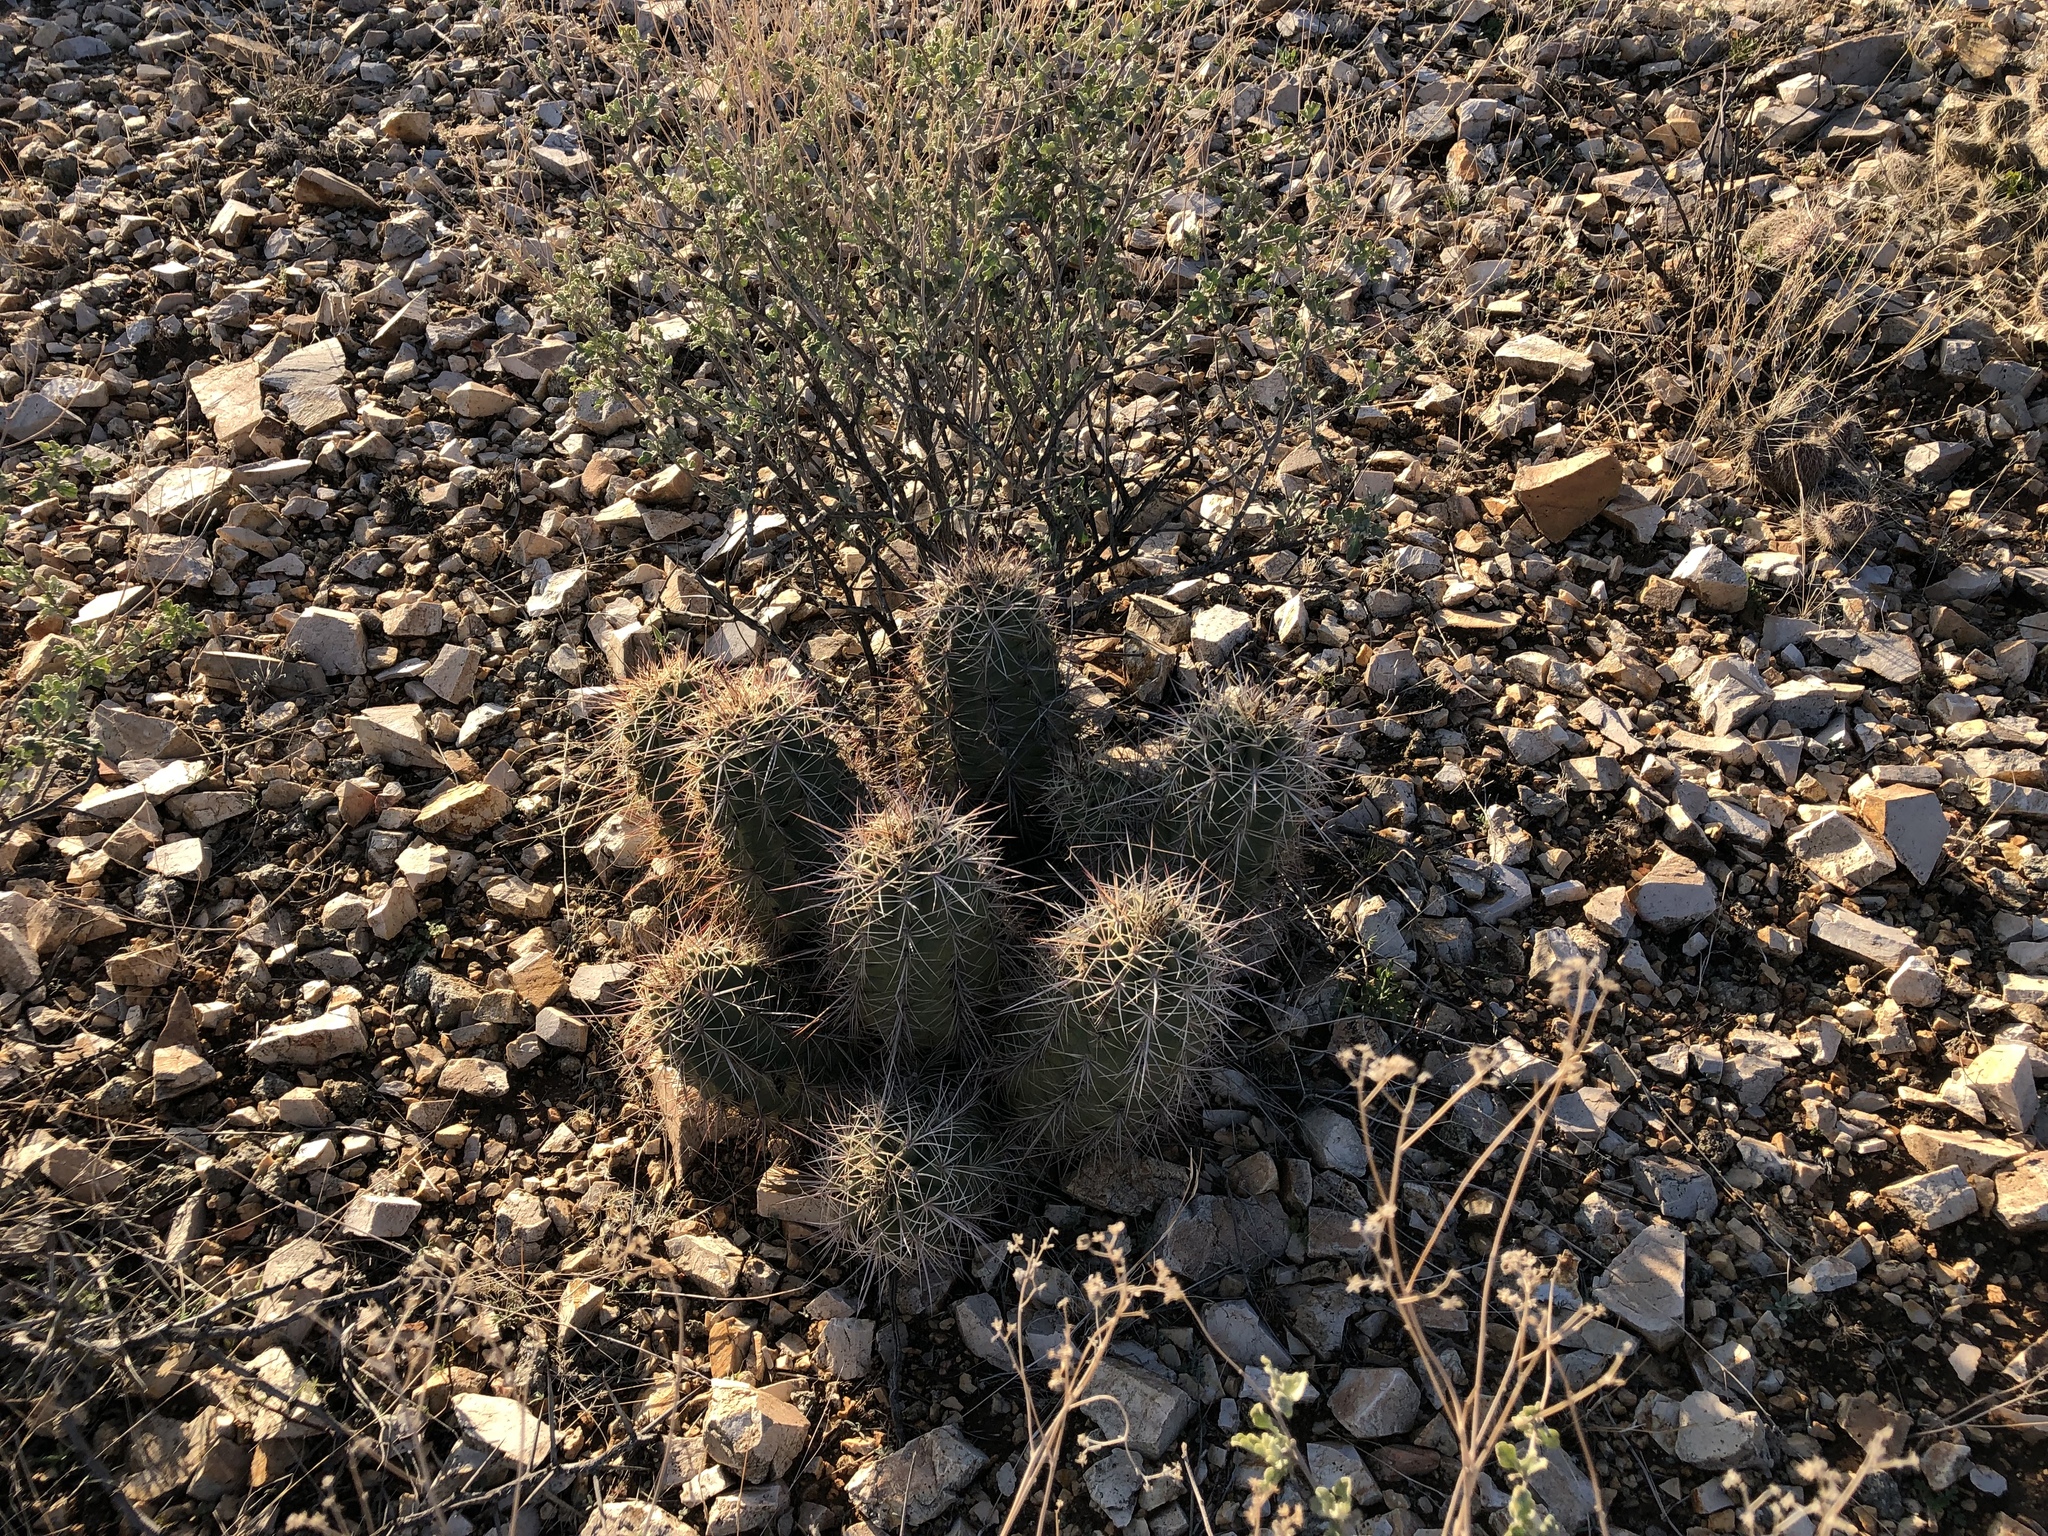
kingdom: Plantae
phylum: Tracheophyta
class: Magnoliopsida
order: Caryophyllales
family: Cactaceae
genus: Echinocereus
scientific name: Echinocereus coccineus
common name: Scarlet hedgehog cactus
